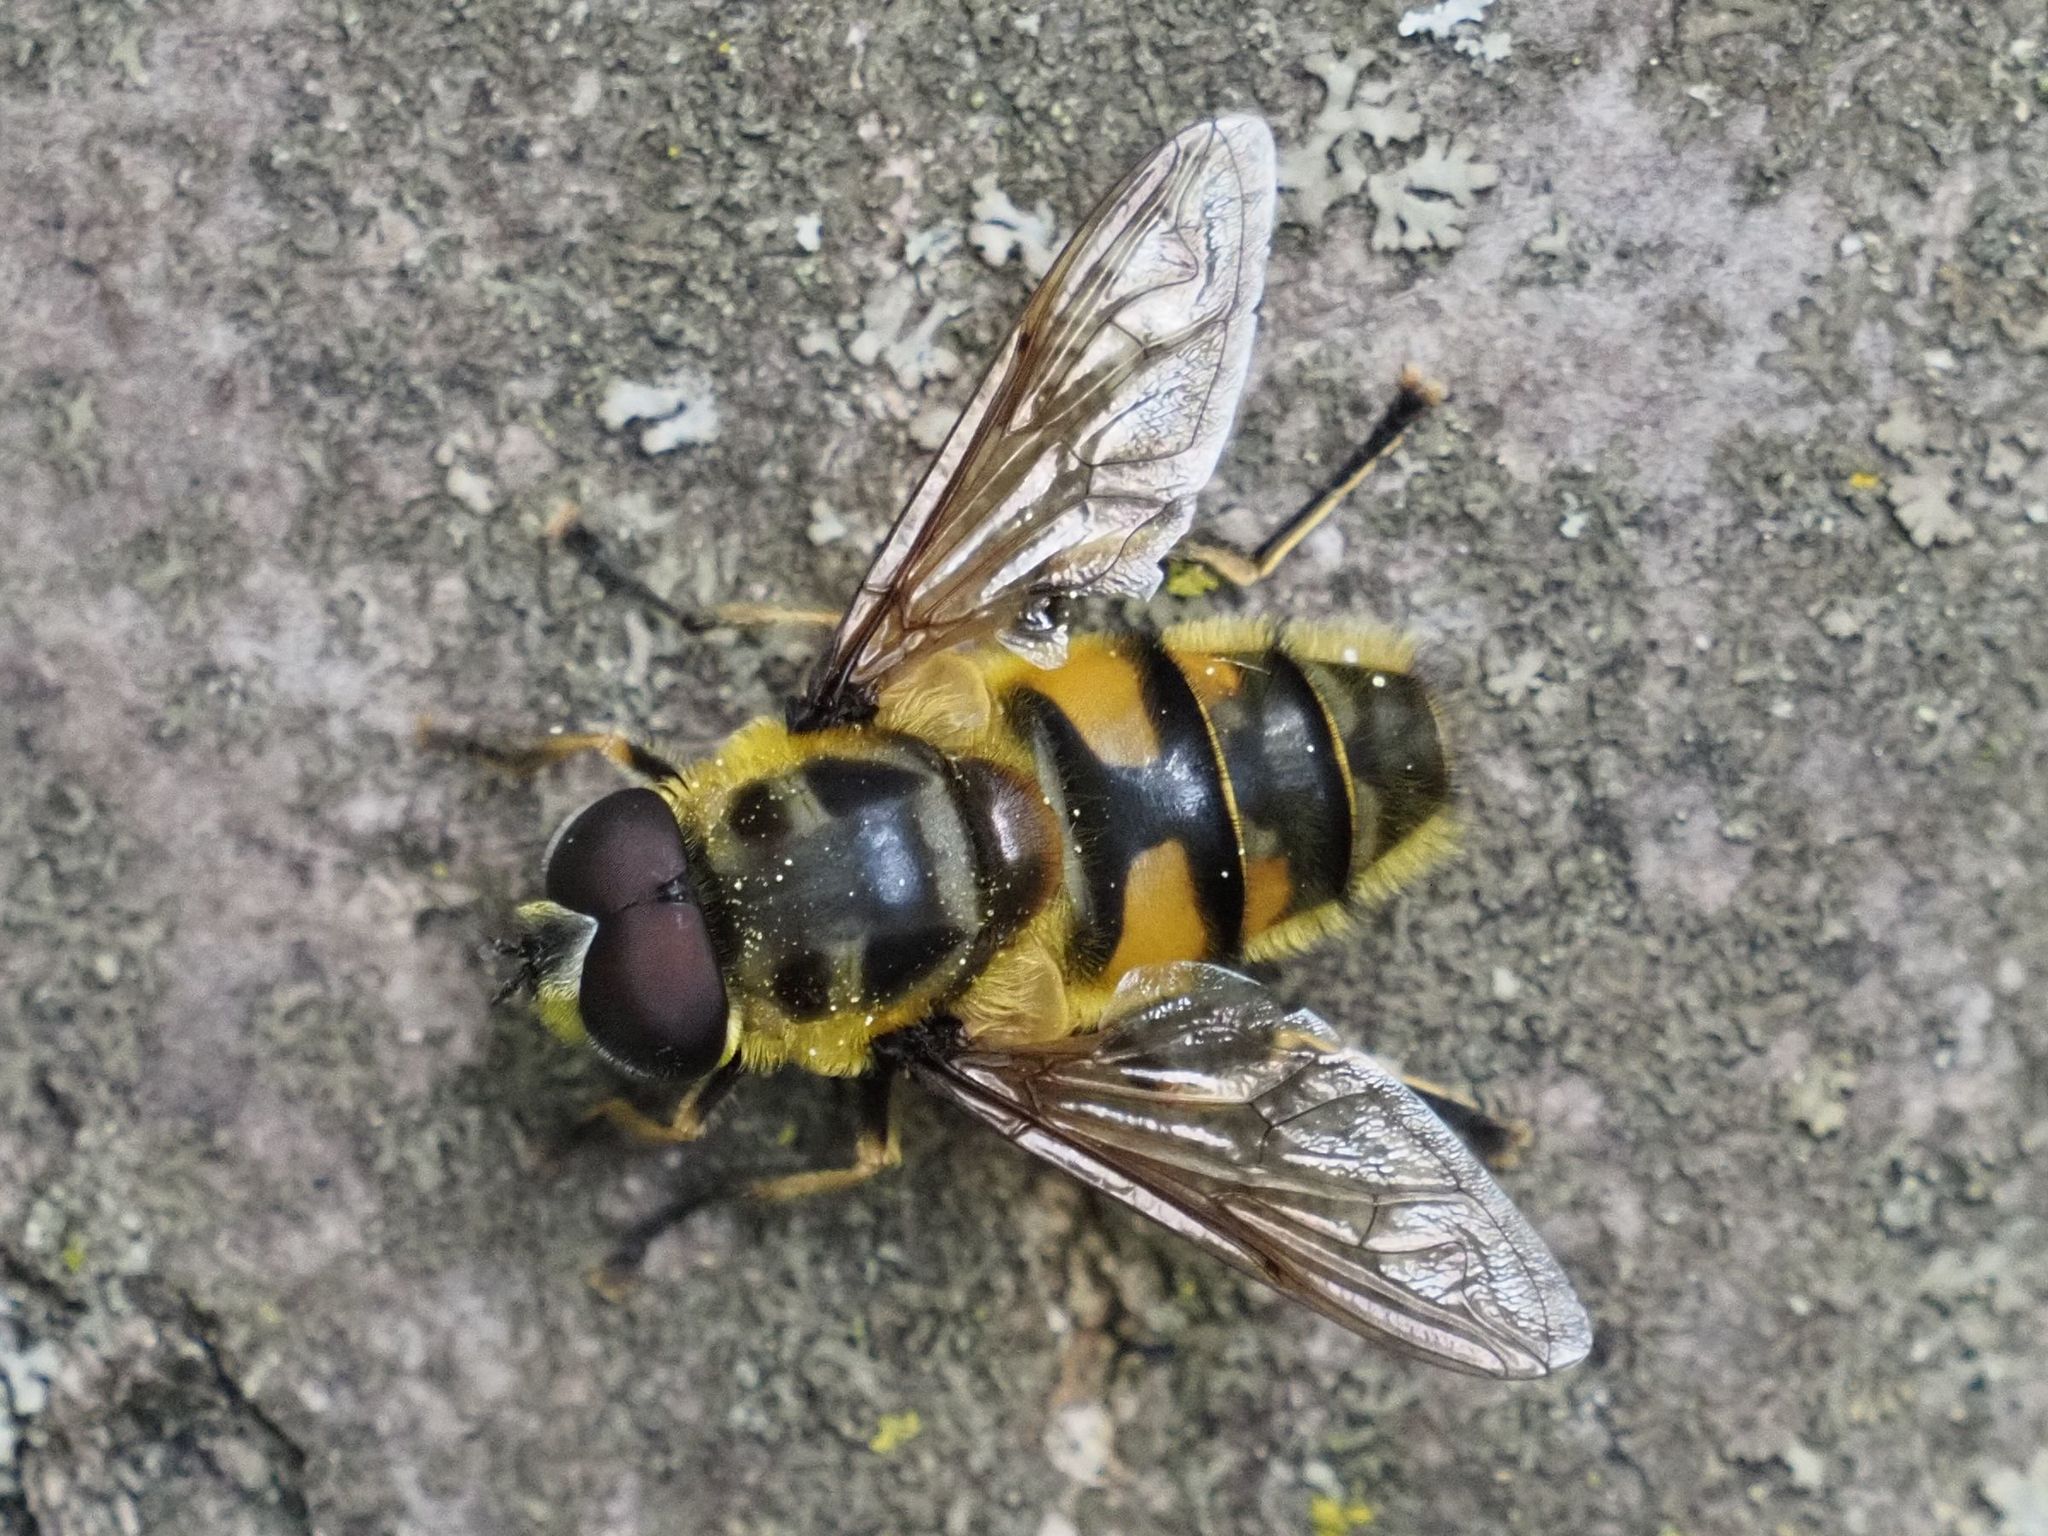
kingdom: Animalia
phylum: Arthropoda
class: Insecta
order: Diptera
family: Syrphidae
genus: Myathropa
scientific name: Myathropa florea
